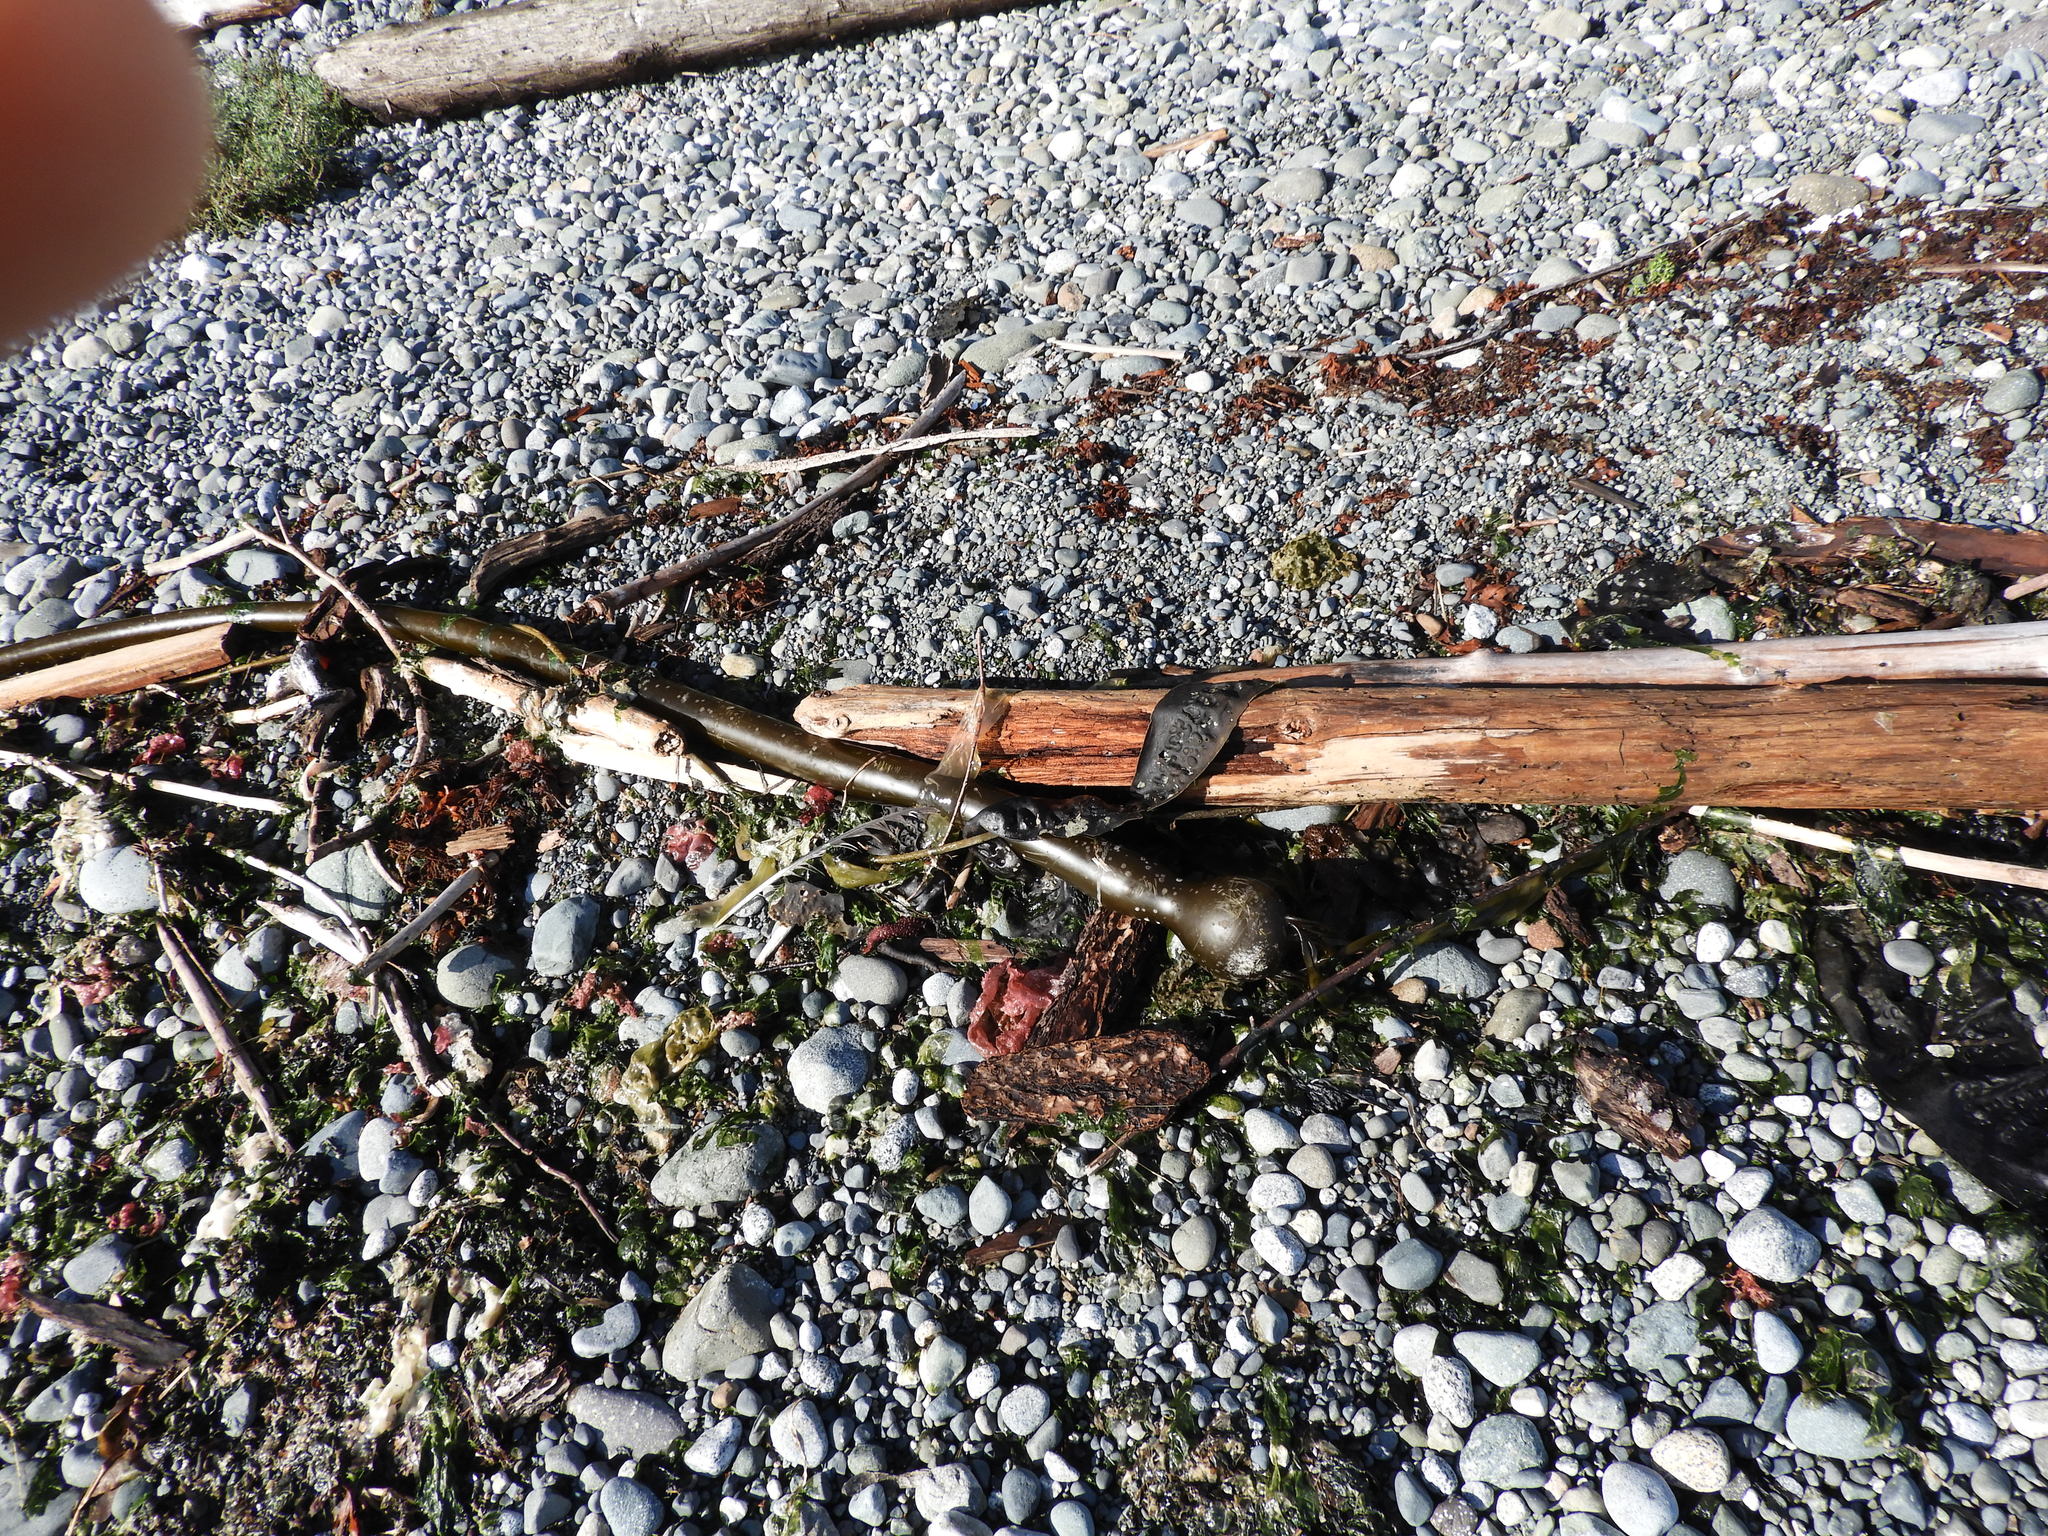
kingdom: Chromista
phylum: Ochrophyta
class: Phaeophyceae
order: Laminariales
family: Laminariaceae
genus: Nereocystis
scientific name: Nereocystis luetkeana
